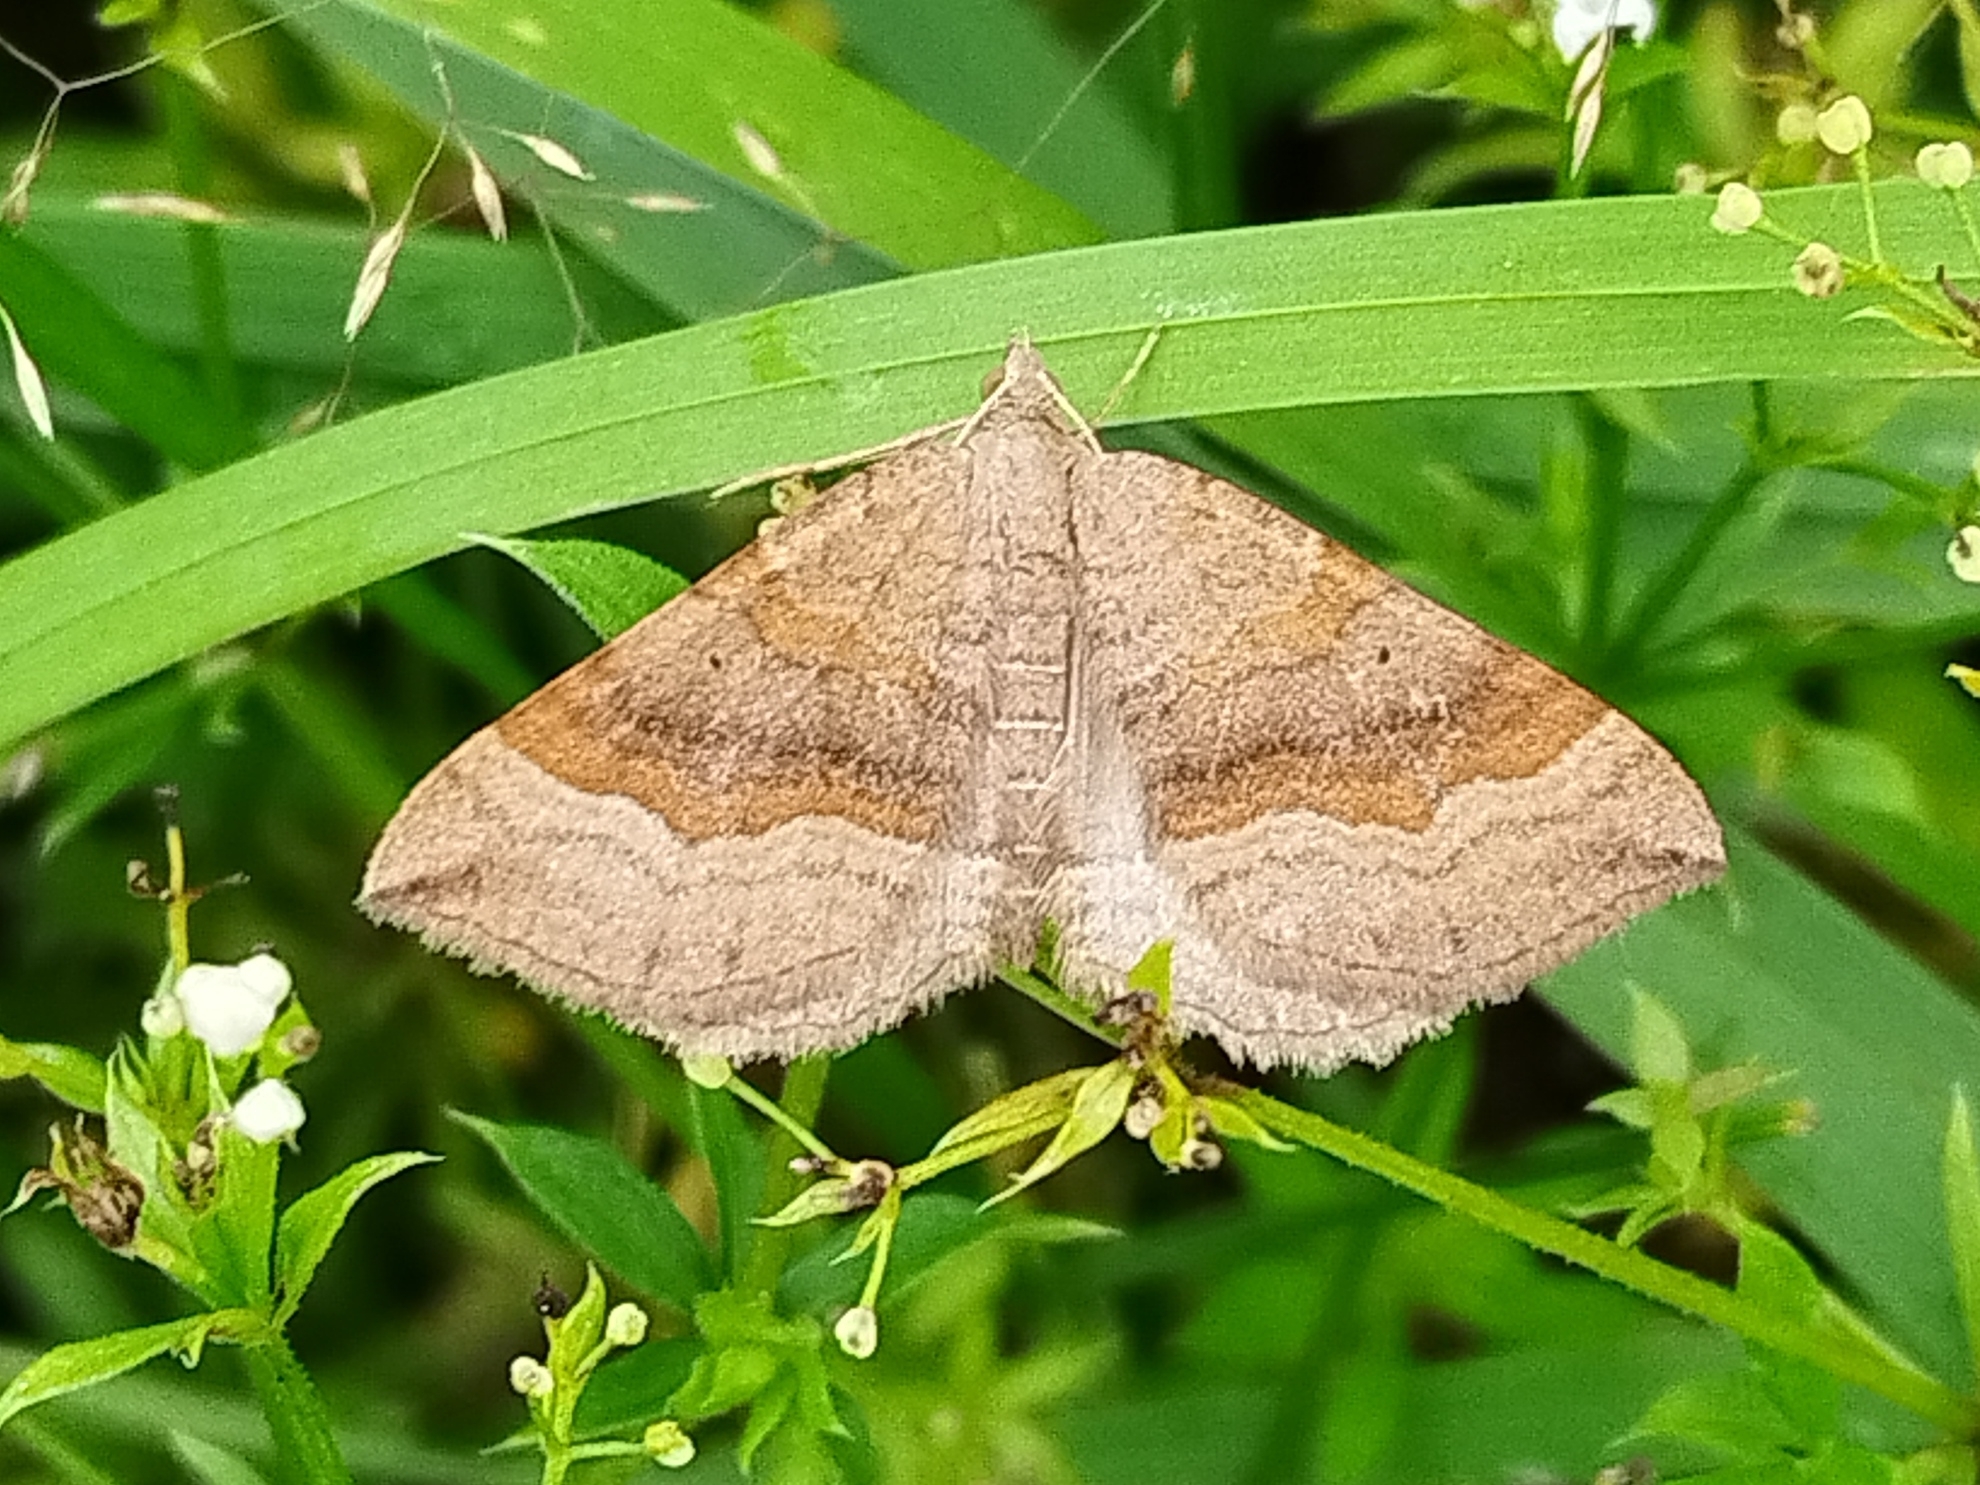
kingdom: Animalia
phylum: Arthropoda
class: Insecta
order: Lepidoptera
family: Geometridae
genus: Scotopteryx
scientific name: Scotopteryx chenopodiata
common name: Shaded broad-bar
